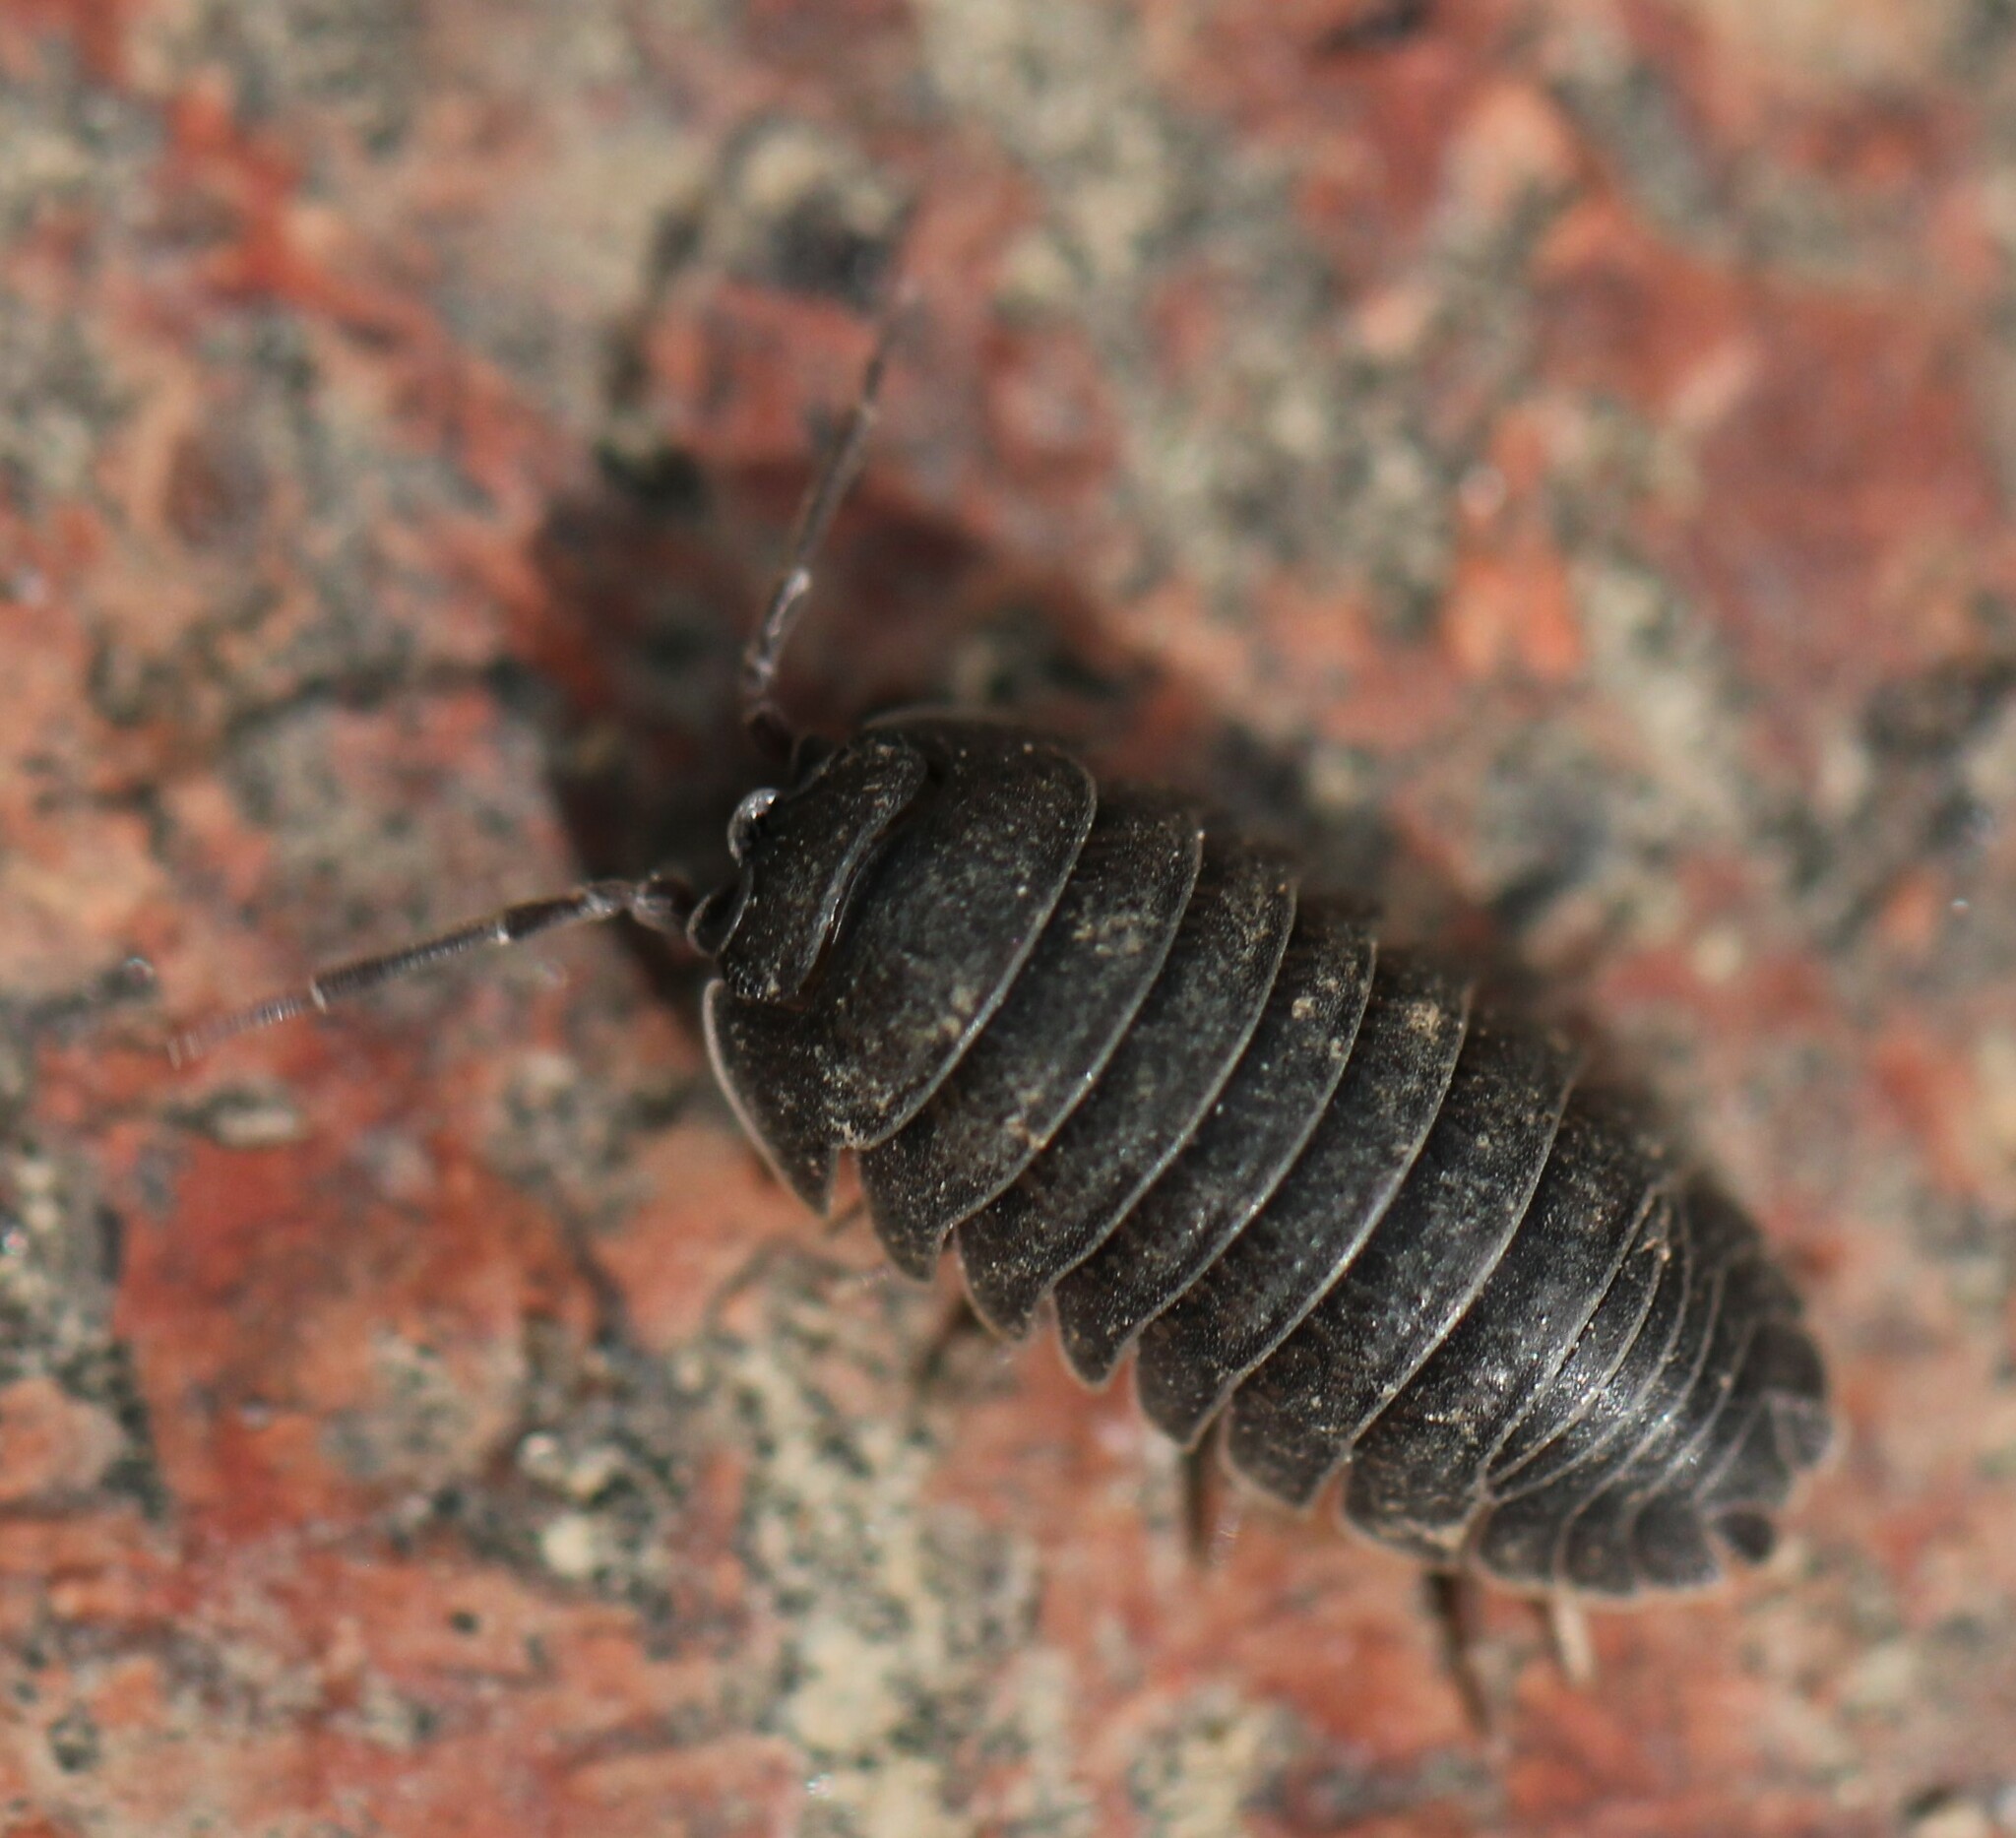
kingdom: Animalia
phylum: Arthropoda
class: Malacostraca
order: Isopoda
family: Armadillidiidae
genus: Armadillidium
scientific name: Armadillidium nasatum
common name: Isopod
